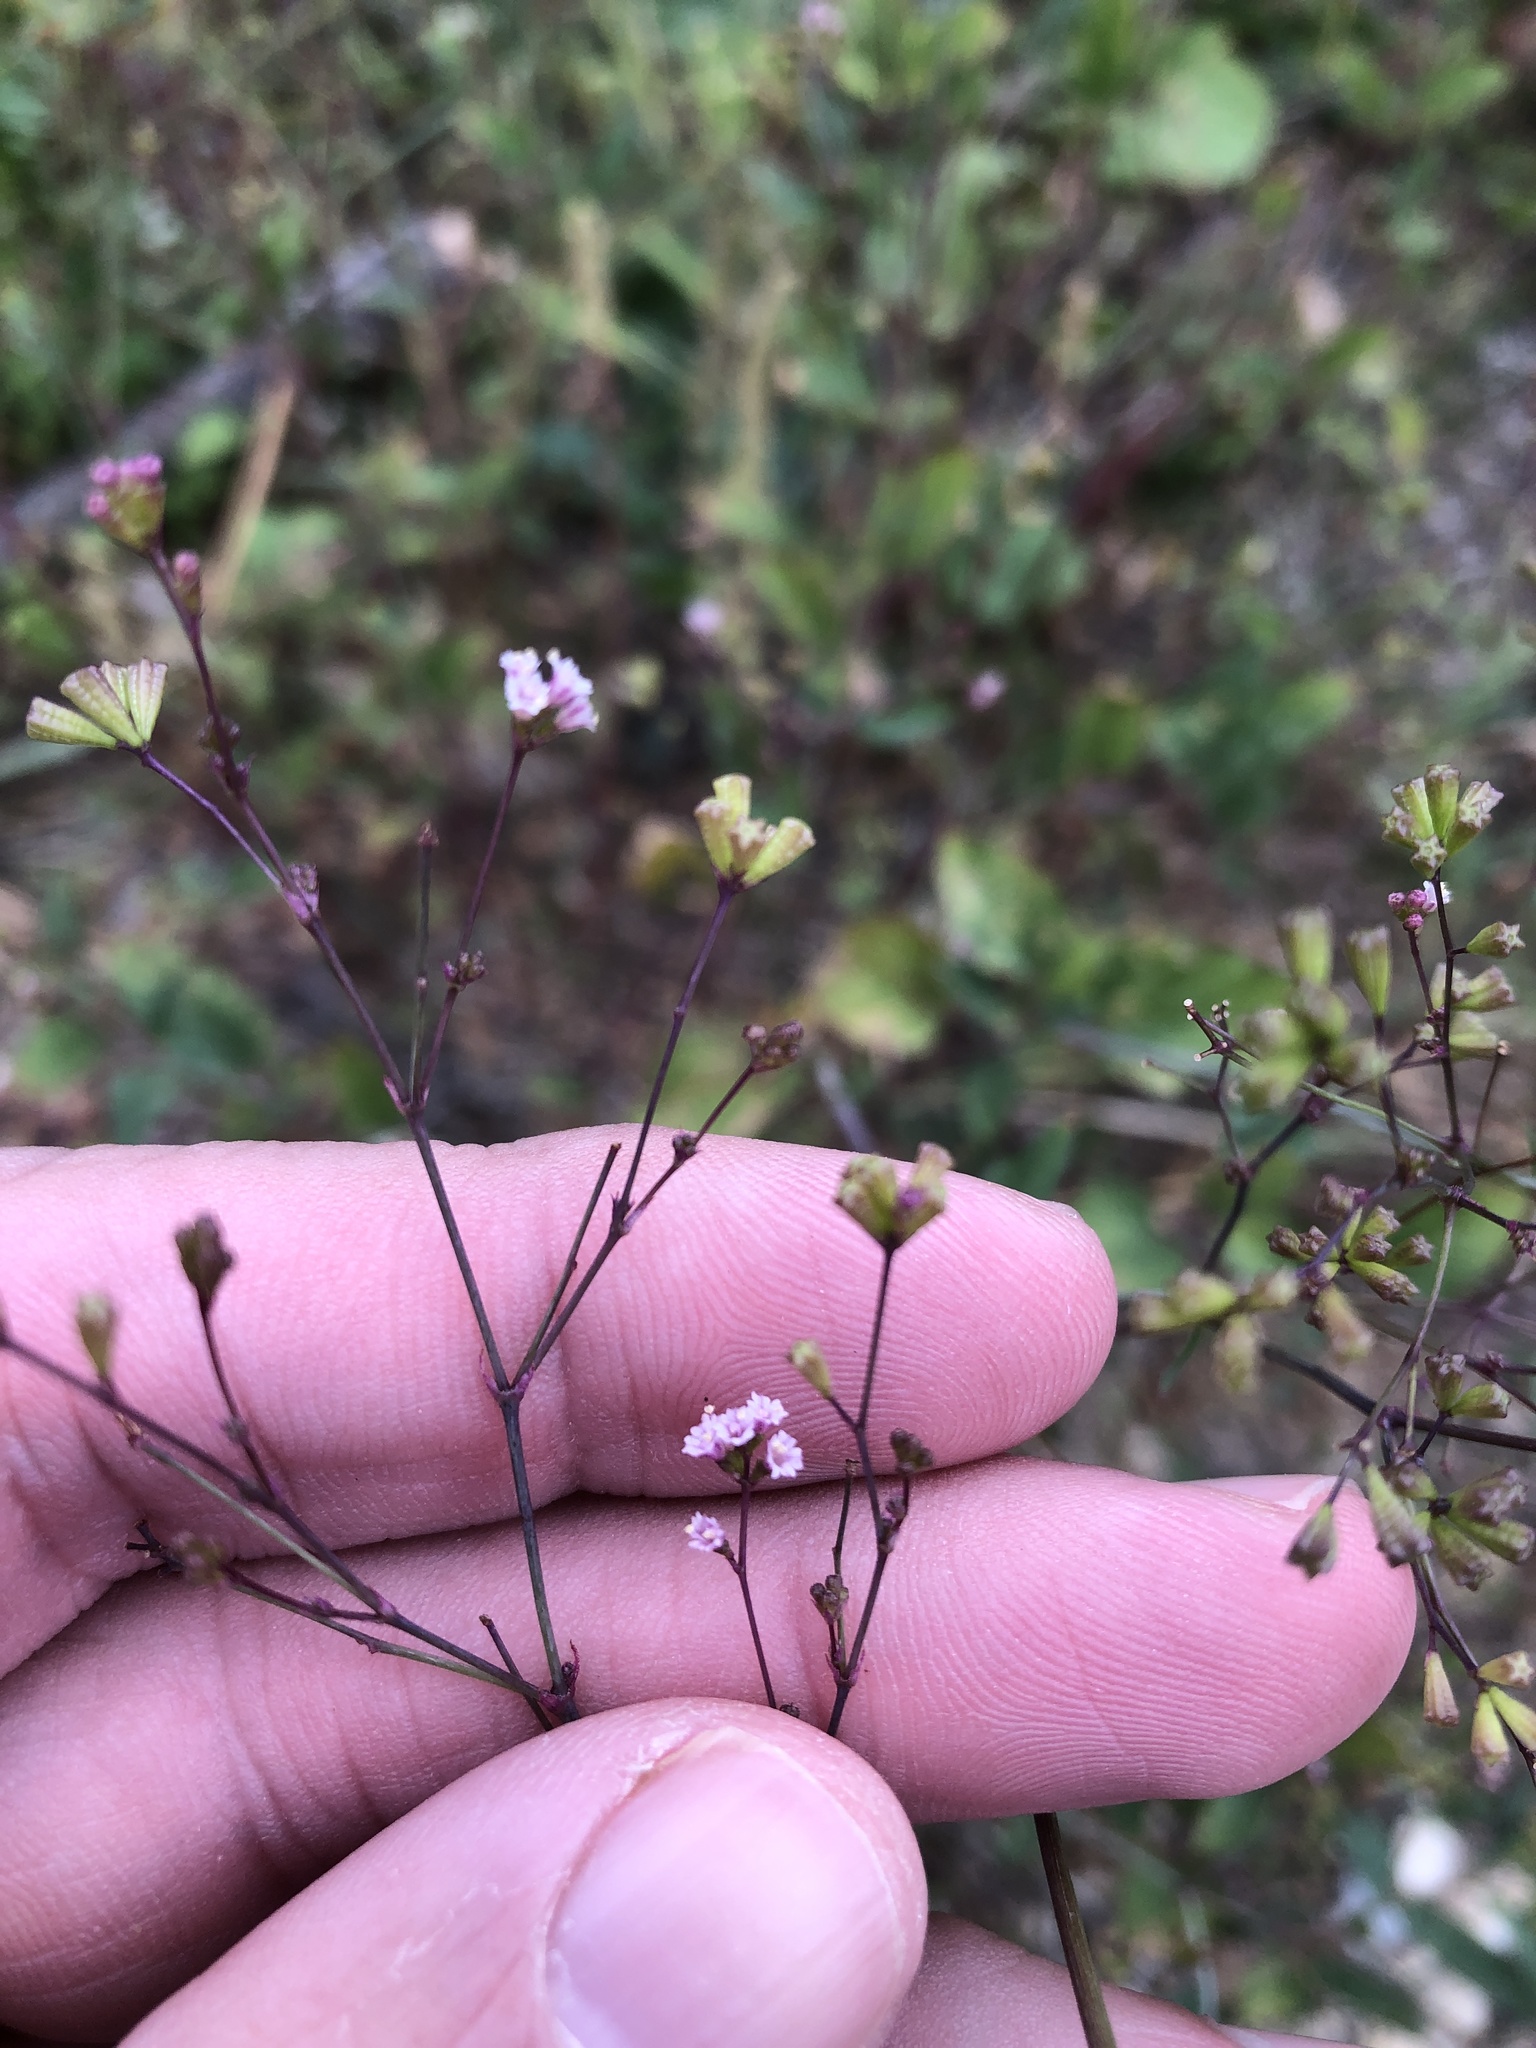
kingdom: Plantae
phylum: Tracheophyta
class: Magnoliopsida
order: Caryophyllales
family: Nyctaginaceae
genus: Boerhavia
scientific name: Boerhavia erecta
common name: Erect spiderling
